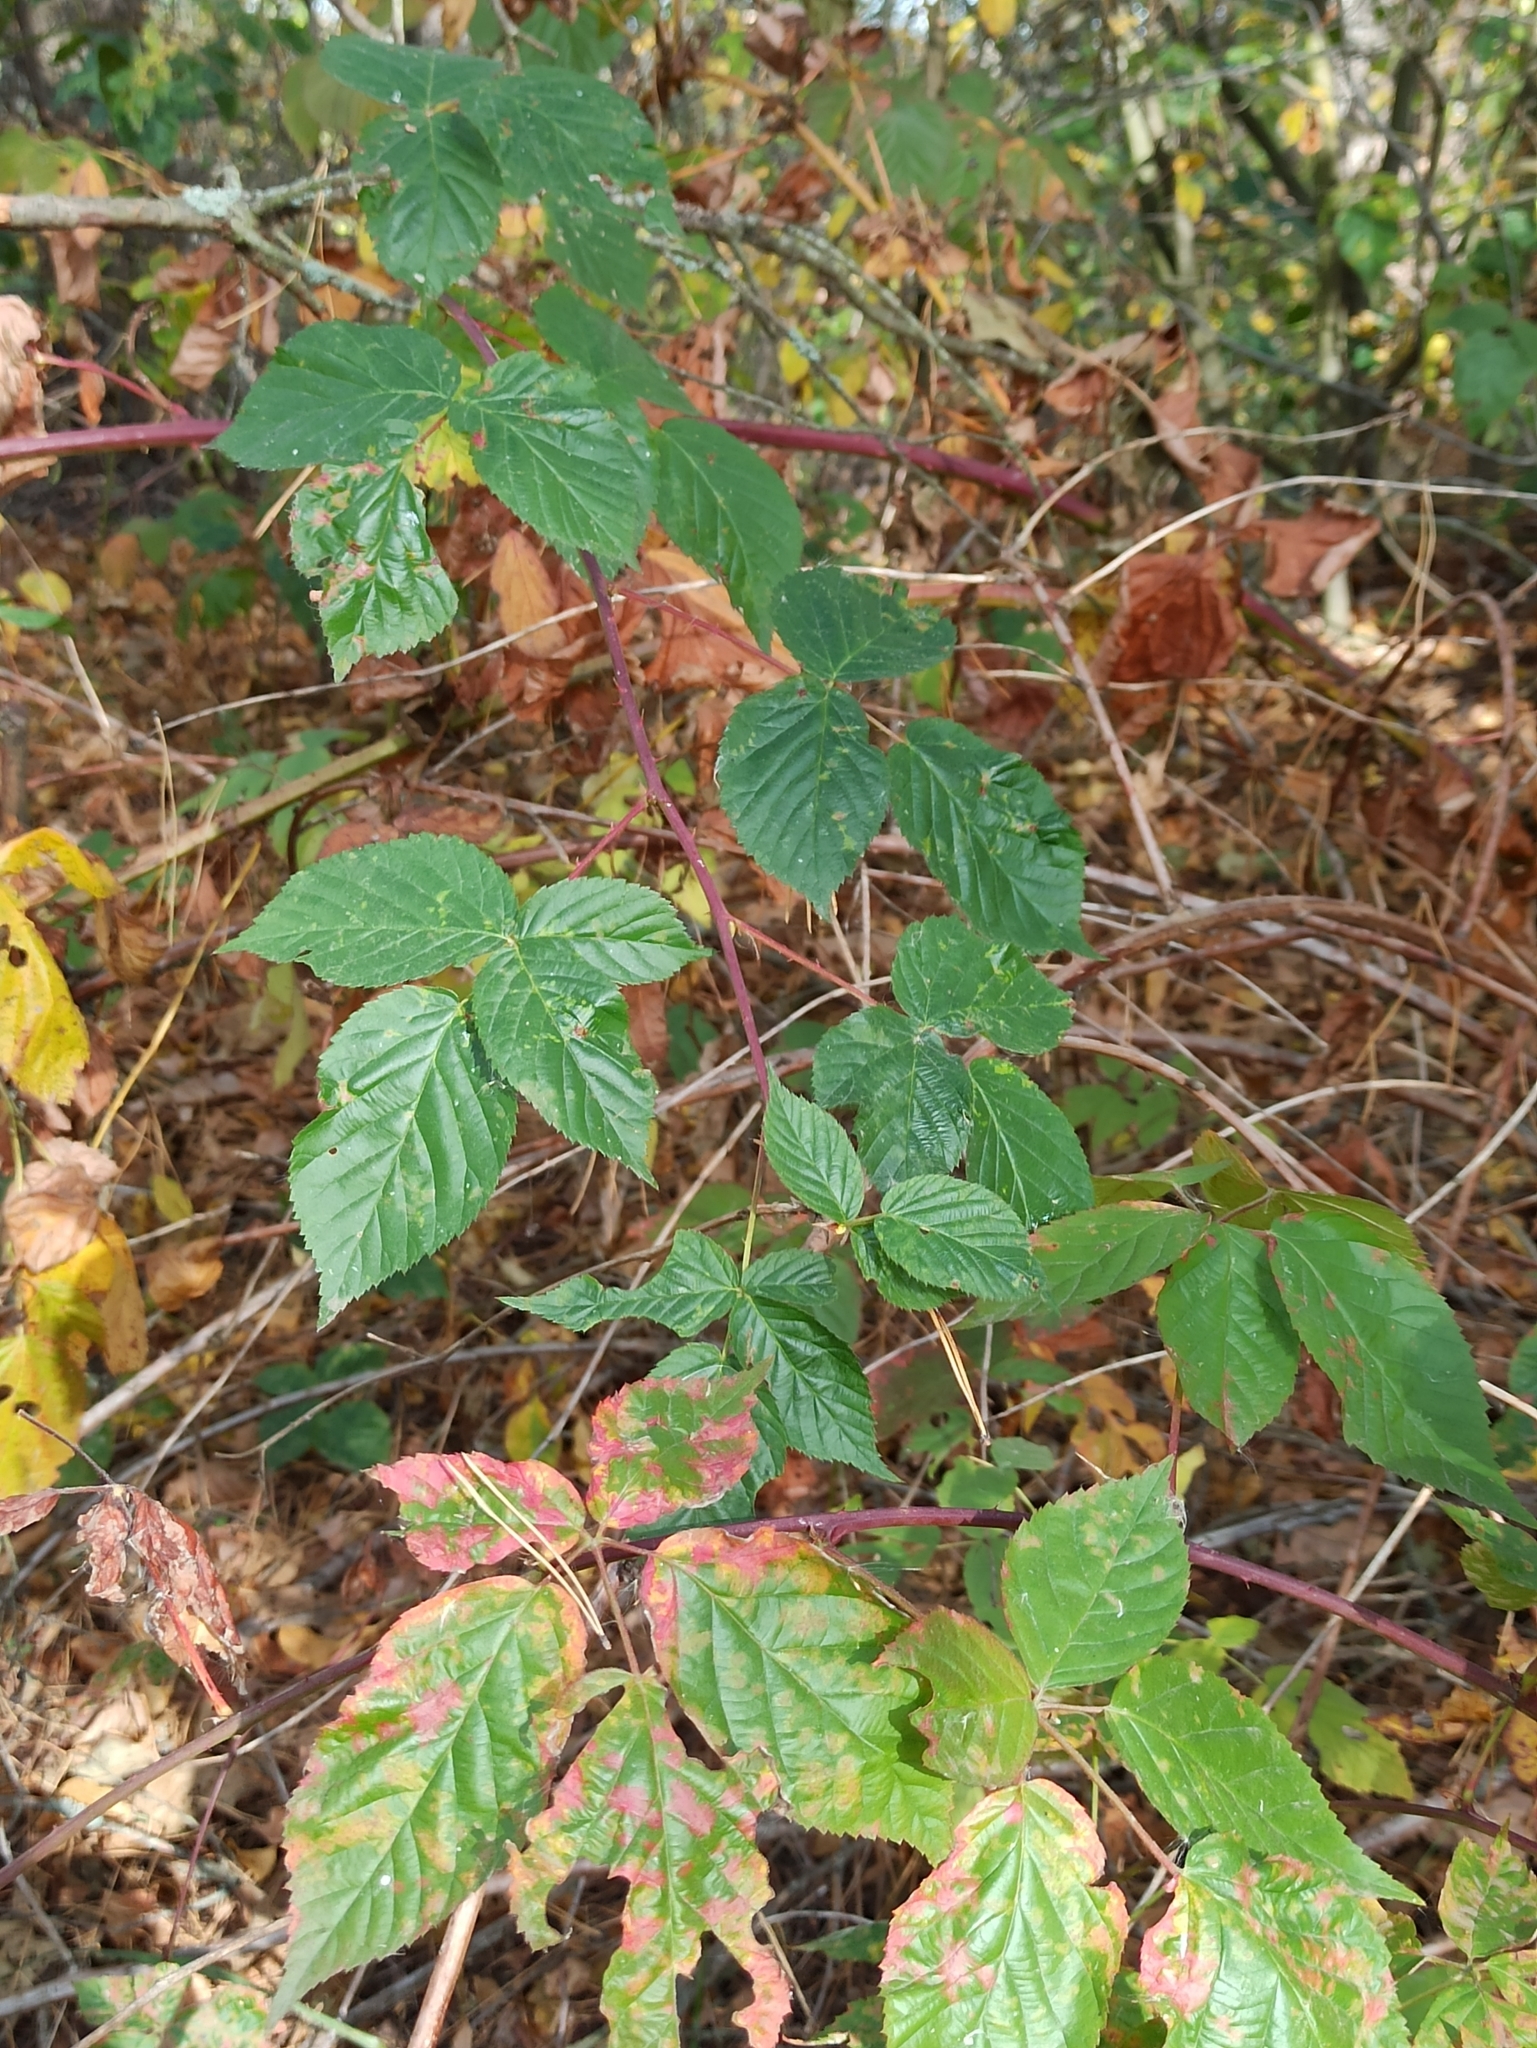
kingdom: Plantae
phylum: Tracheophyta
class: Magnoliopsida
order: Rosales
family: Rosaceae
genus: Rubus
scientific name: Rubus polonicus
